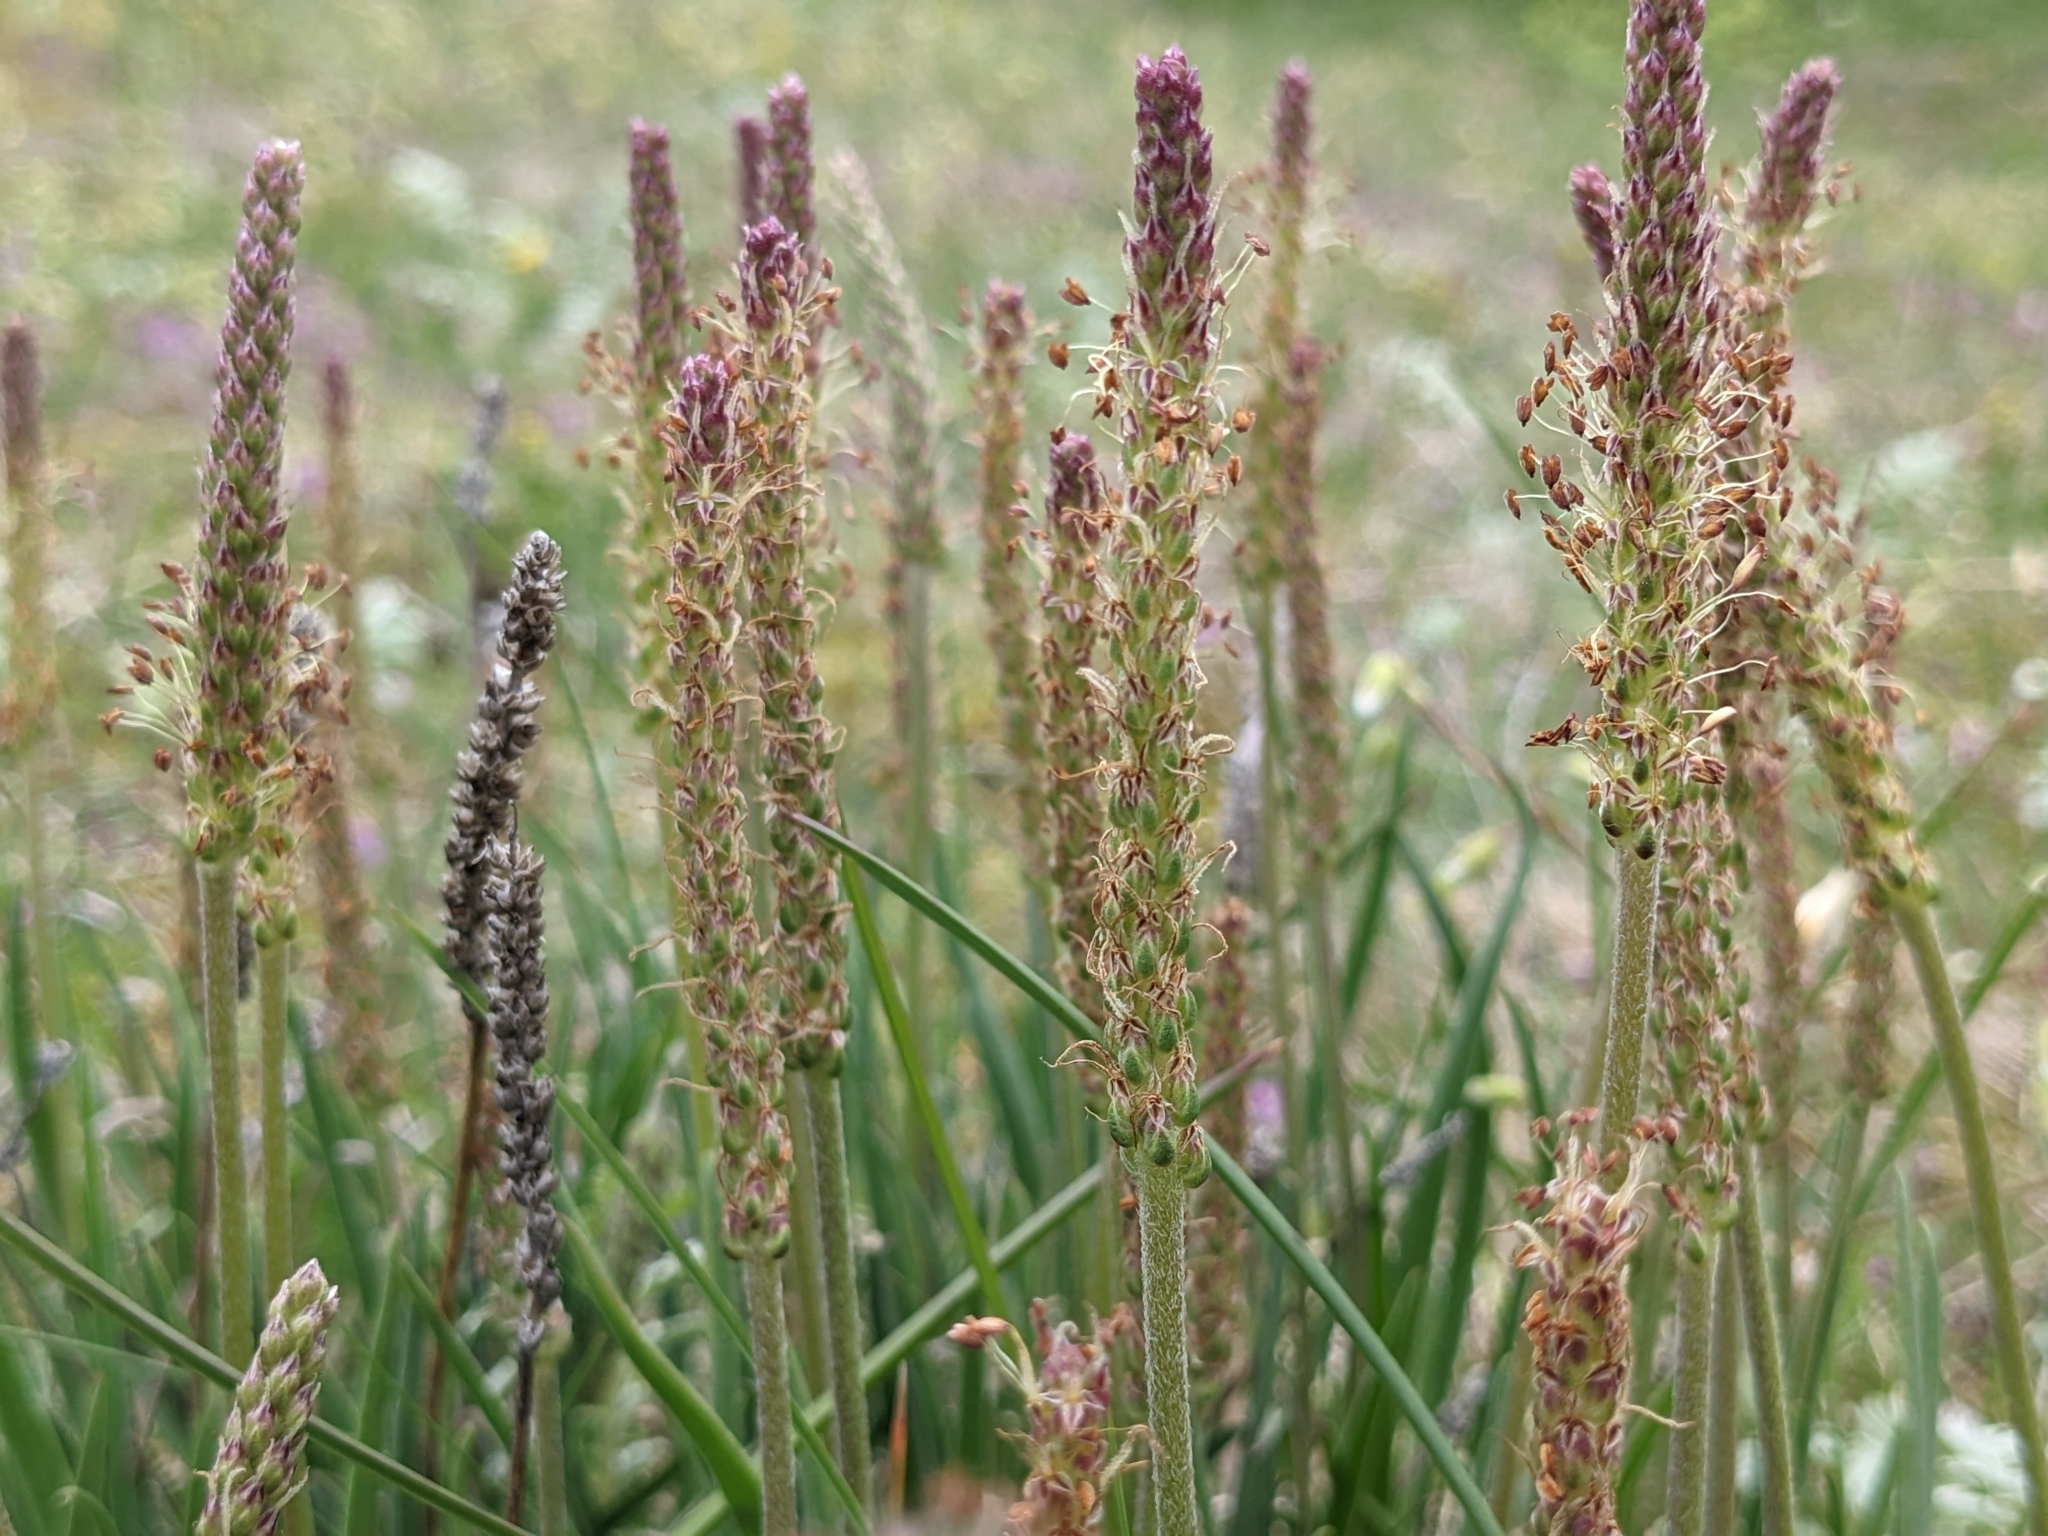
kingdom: Plantae
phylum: Tracheophyta
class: Magnoliopsida
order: Lamiales
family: Plantaginaceae
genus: Plantago
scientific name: Plantago maritima
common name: Sea plantain
